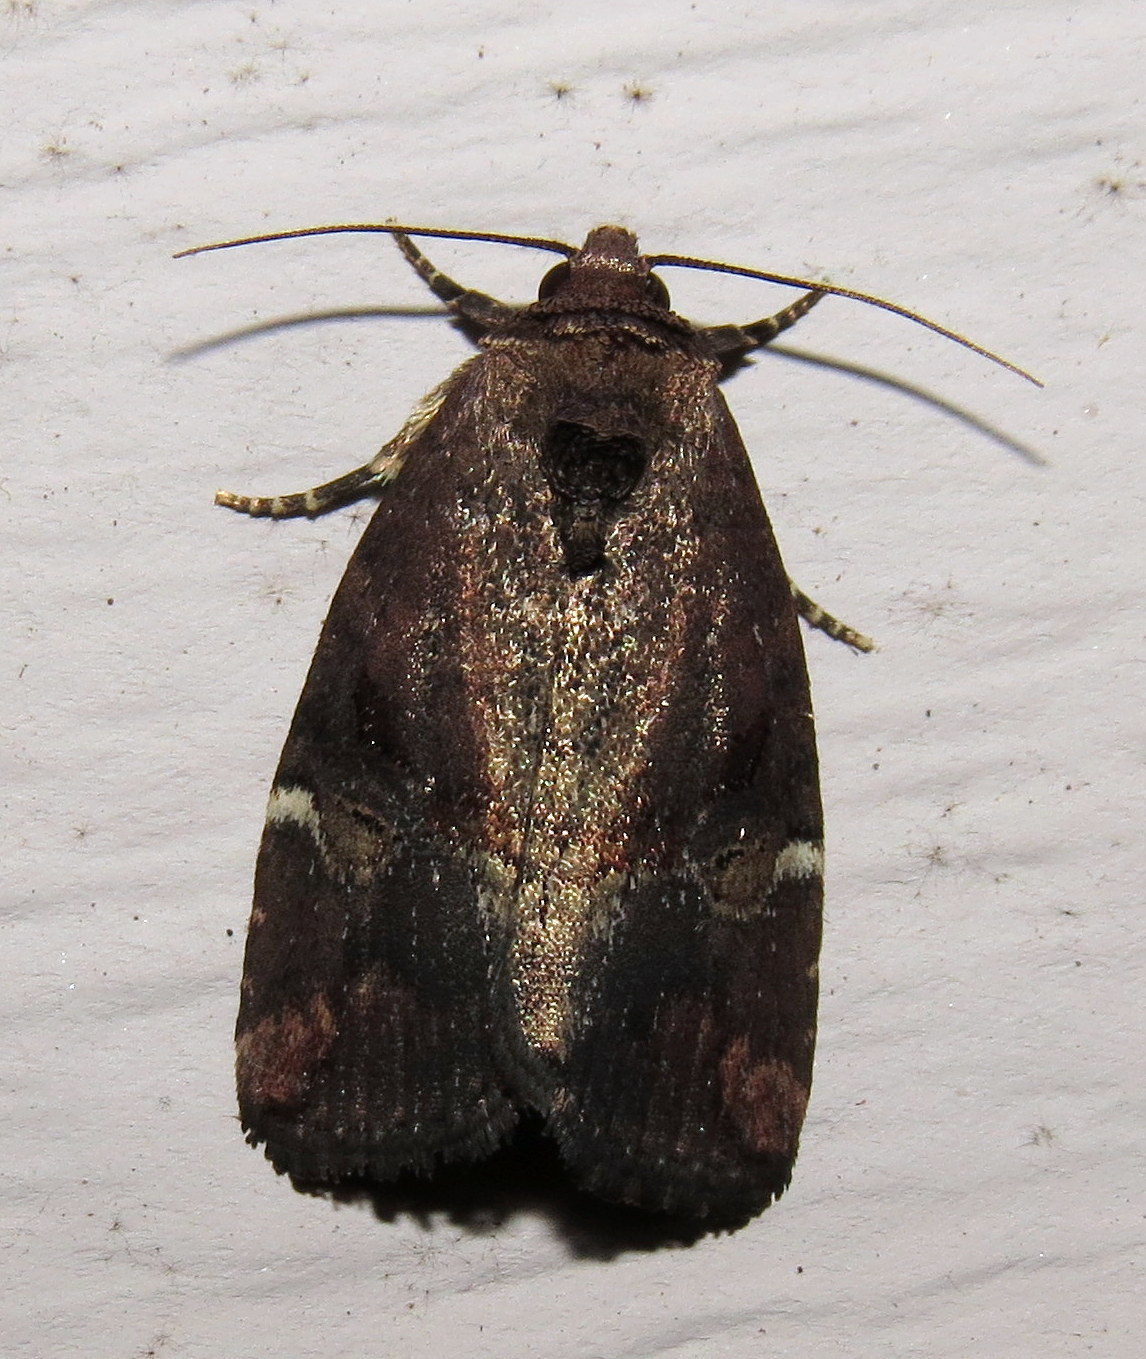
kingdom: Animalia
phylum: Arthropoda
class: Insecta
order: Lepidoptera
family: Noctuidae
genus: Elaphria
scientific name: Elaphria versicolor
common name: Fir harlequin
